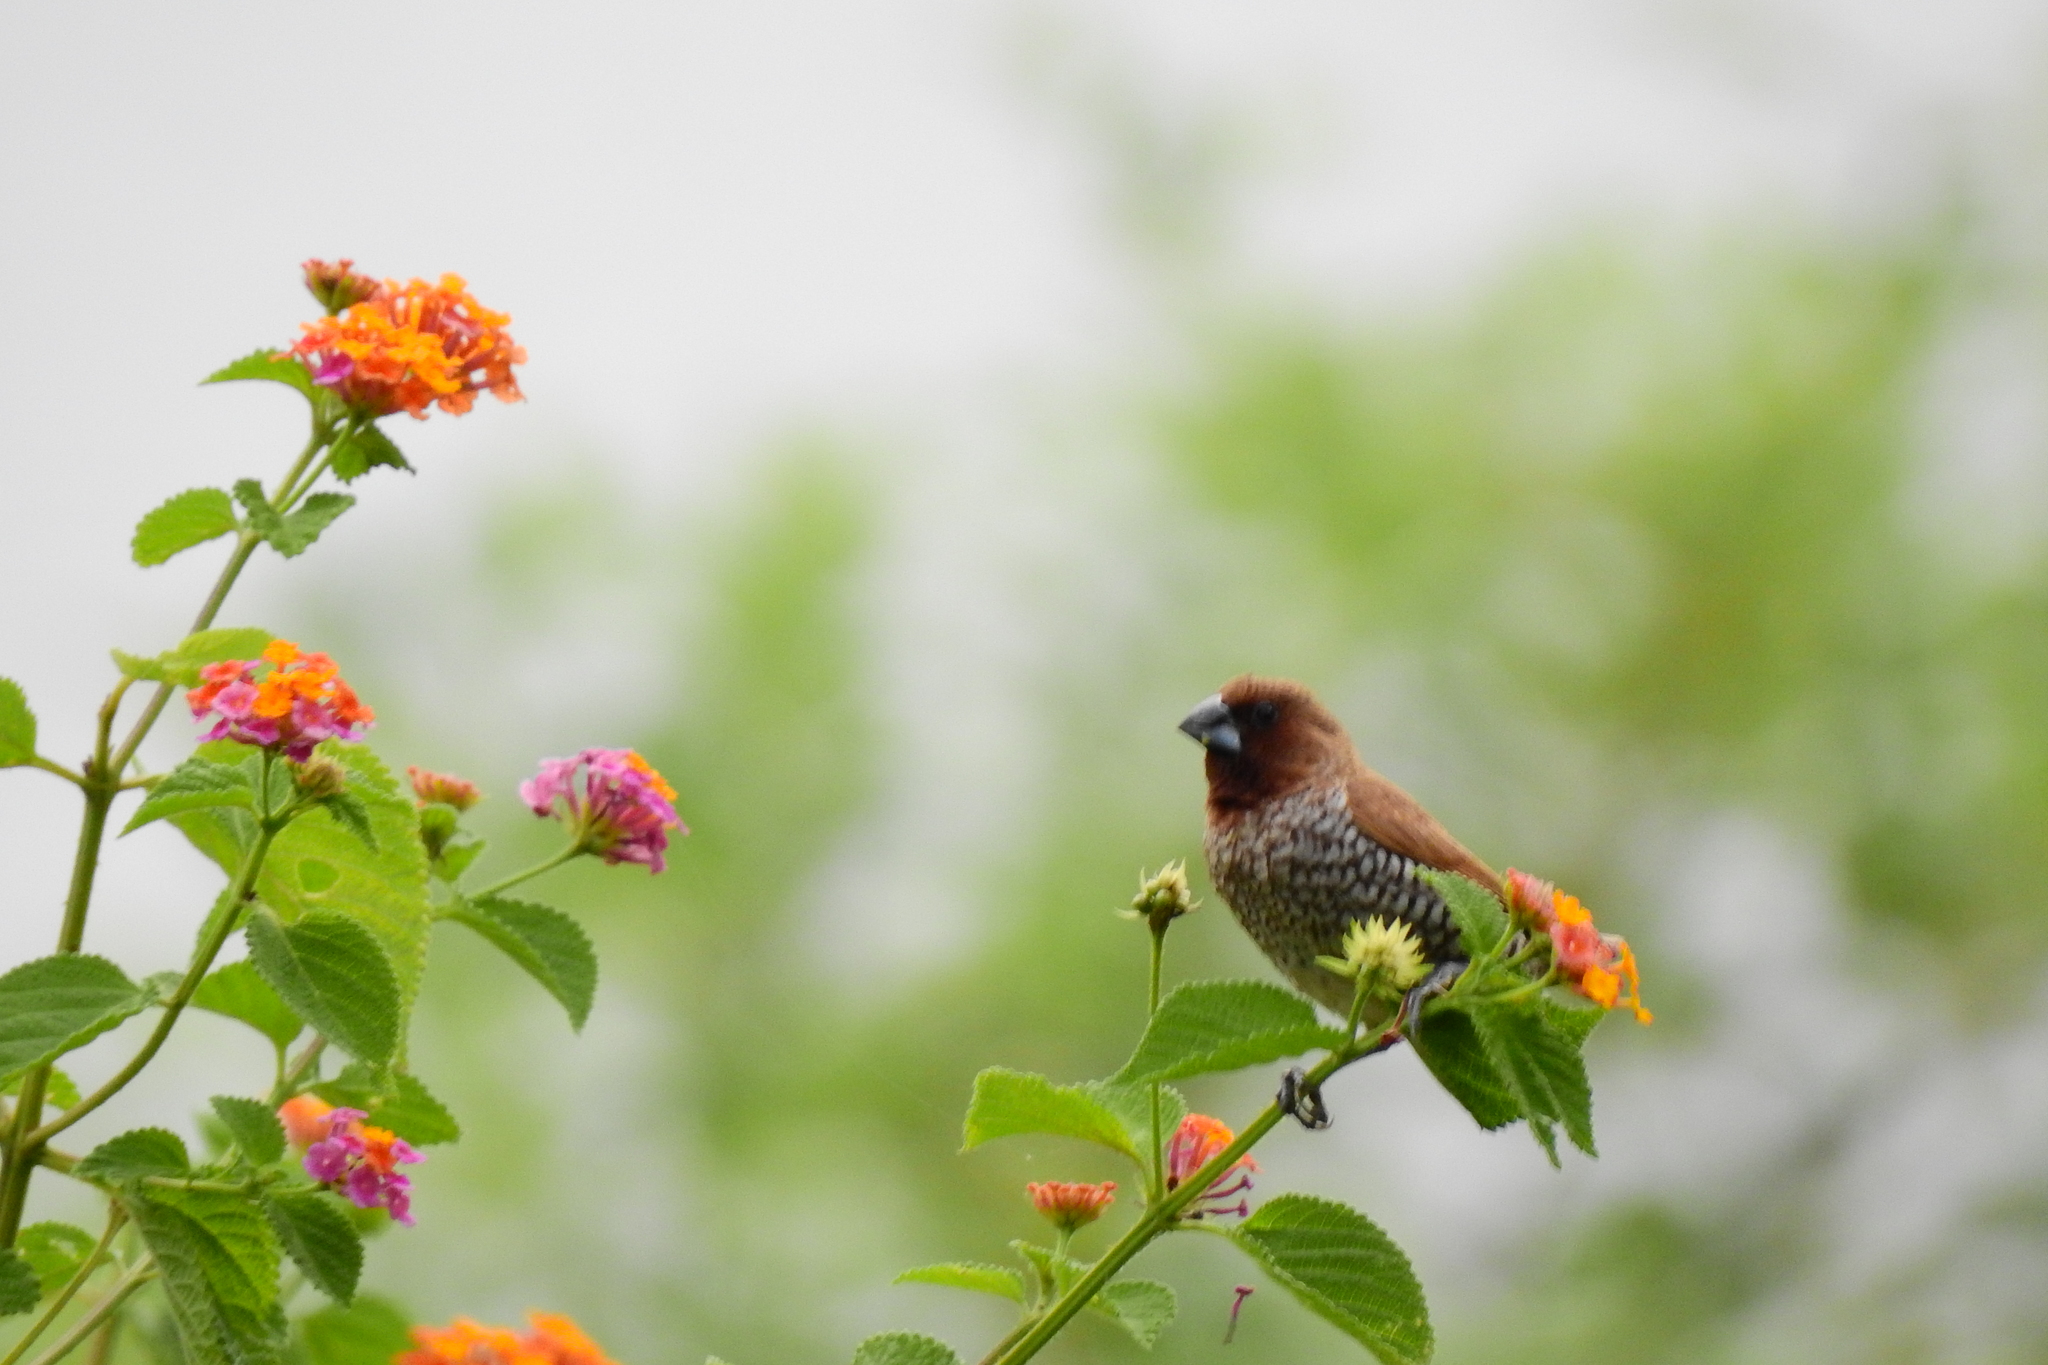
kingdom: Animalia
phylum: Chordata
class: Aves
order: Passeriformes
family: Estrildidae
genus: Lonchura
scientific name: Lonchura punctulata
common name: Scaly-breasted munia
